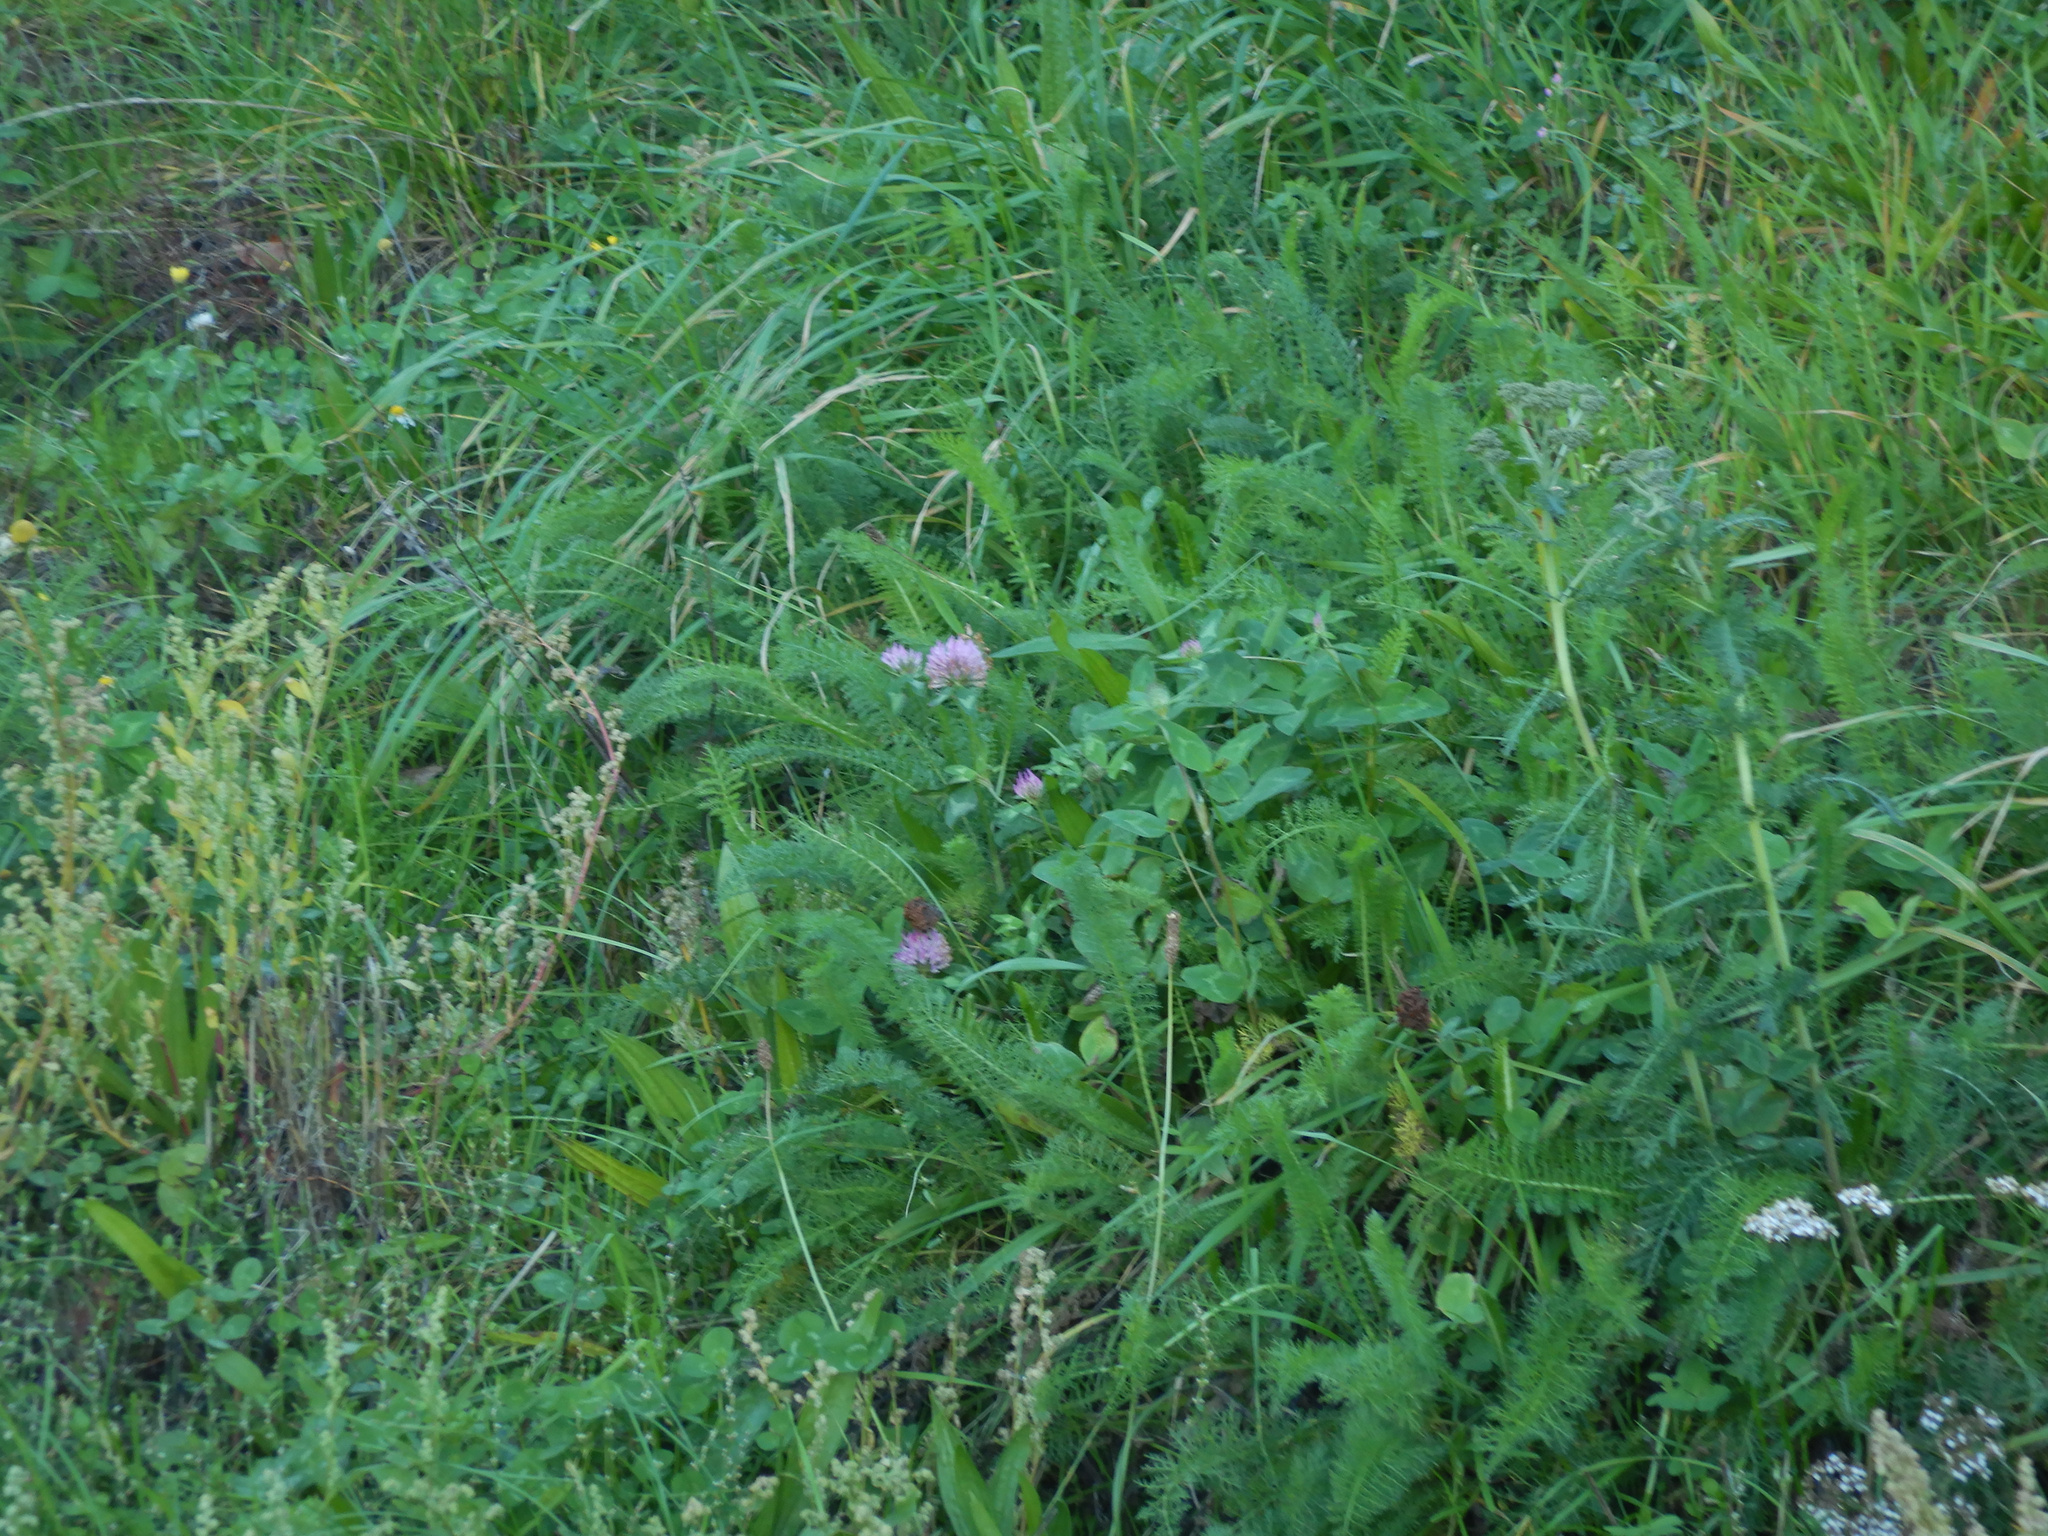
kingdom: Plantae
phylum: Tracheophyta
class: Magnoliopsida
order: Fabales
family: Fabaceae
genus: Trifolium
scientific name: Trifolium pratense
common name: Red clover
